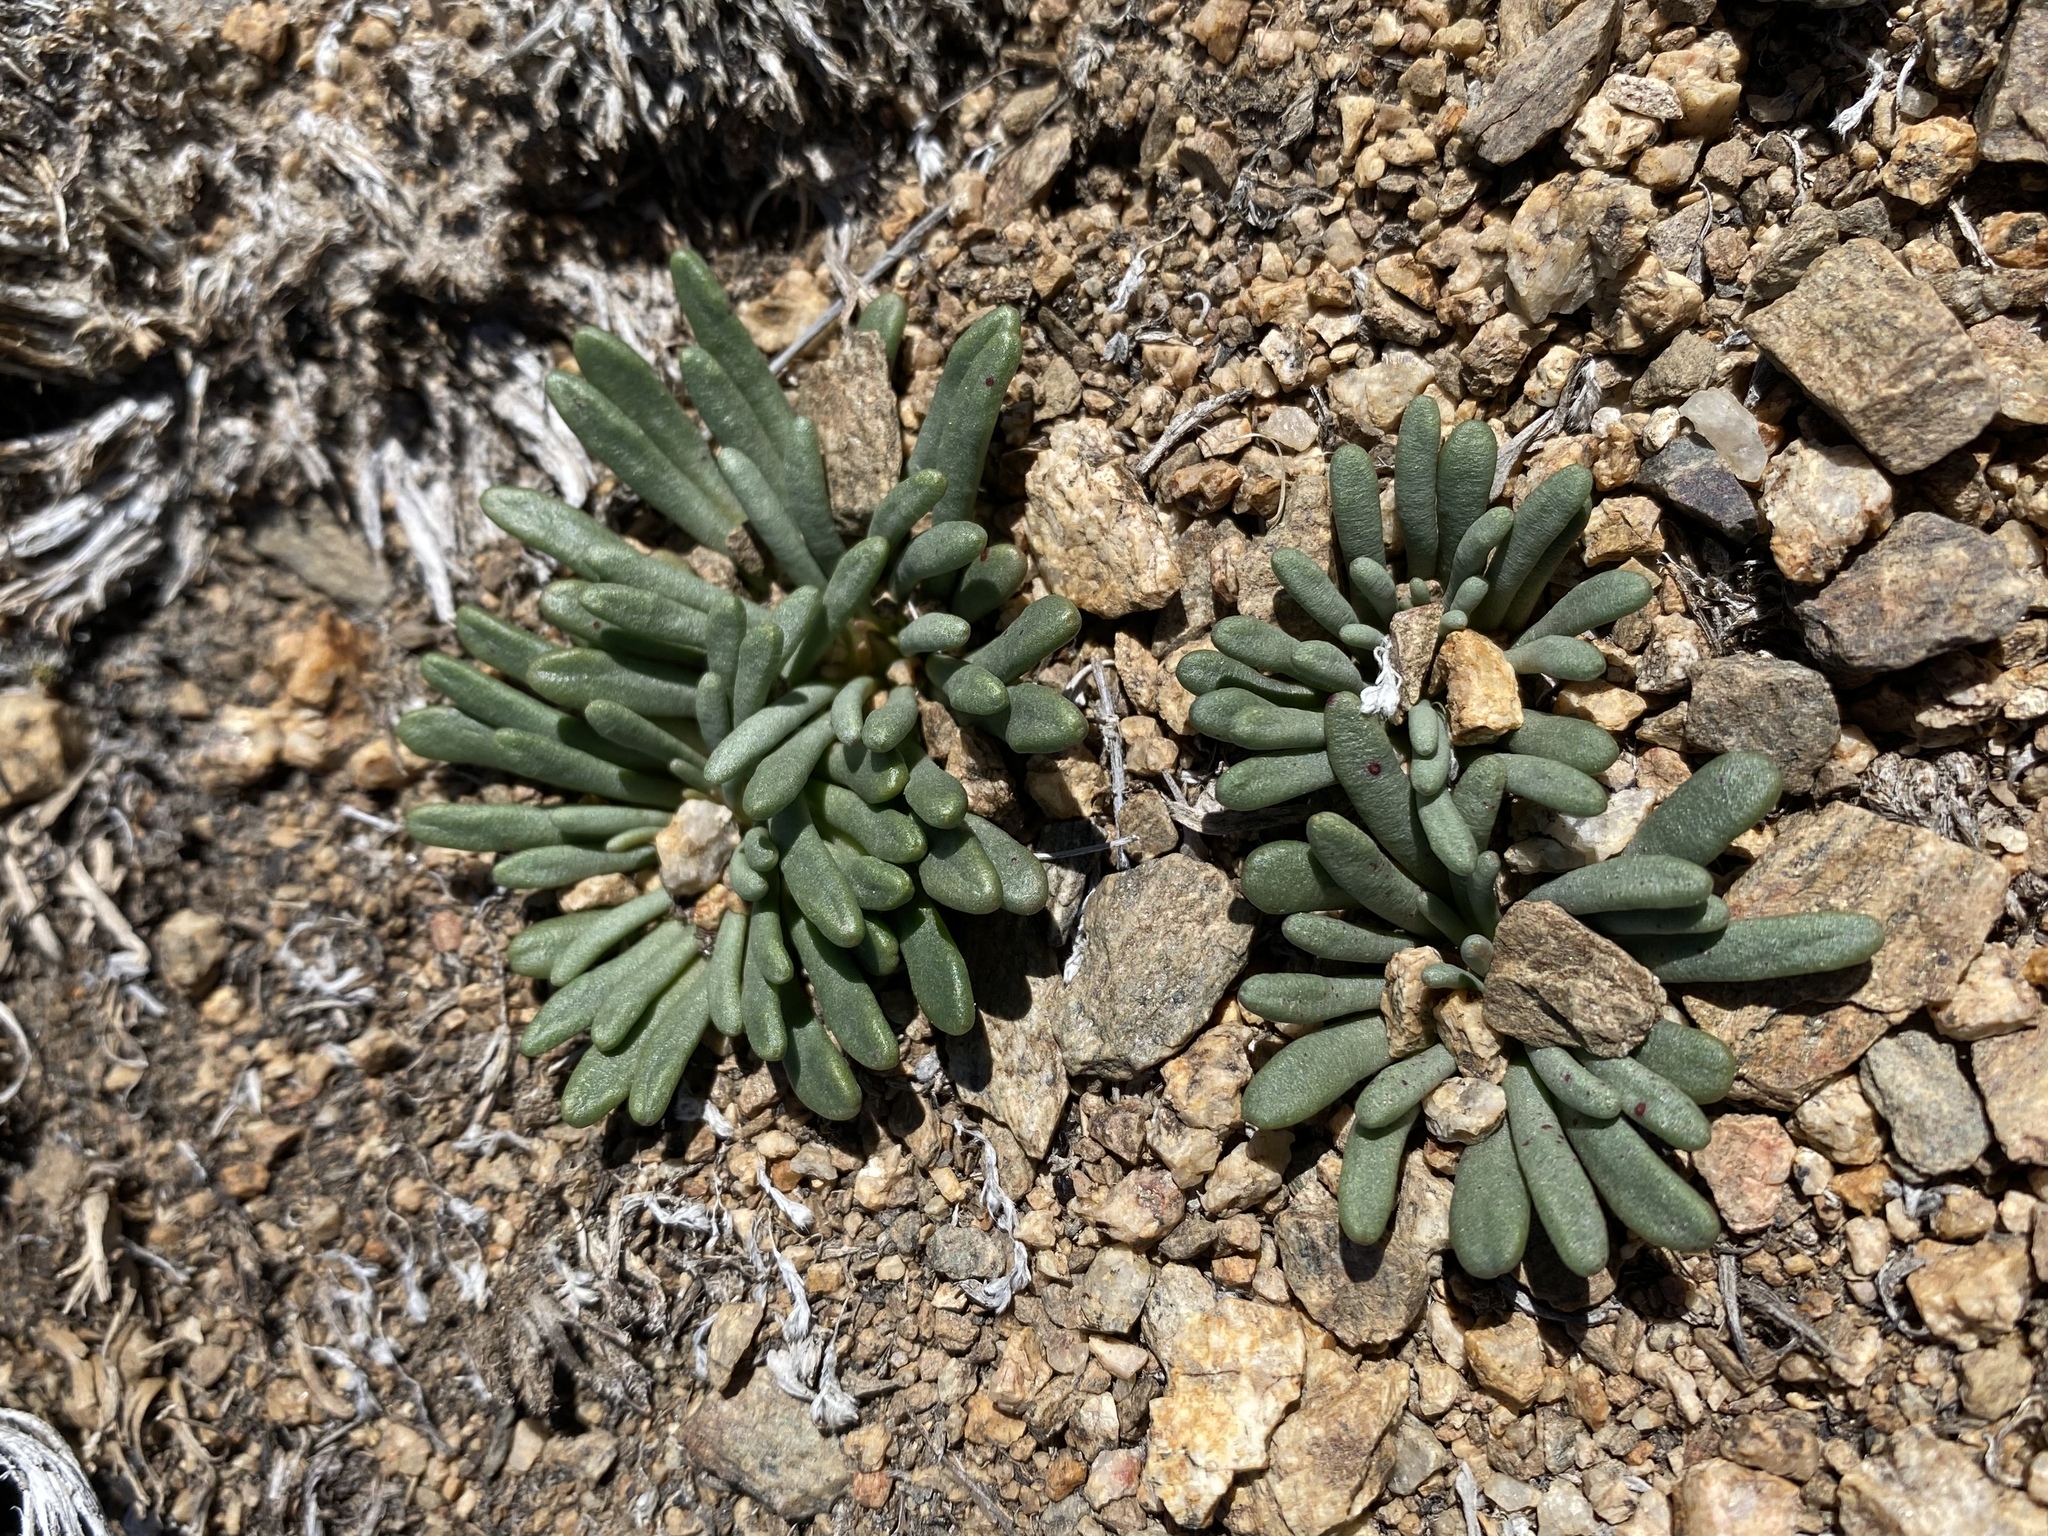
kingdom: Plantae
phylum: Tracheophyta
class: Magnoliopsida
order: Caryophyllales
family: Montiaceae
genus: Lewisia
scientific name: Lewisia rediviva
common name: Bitter-root
